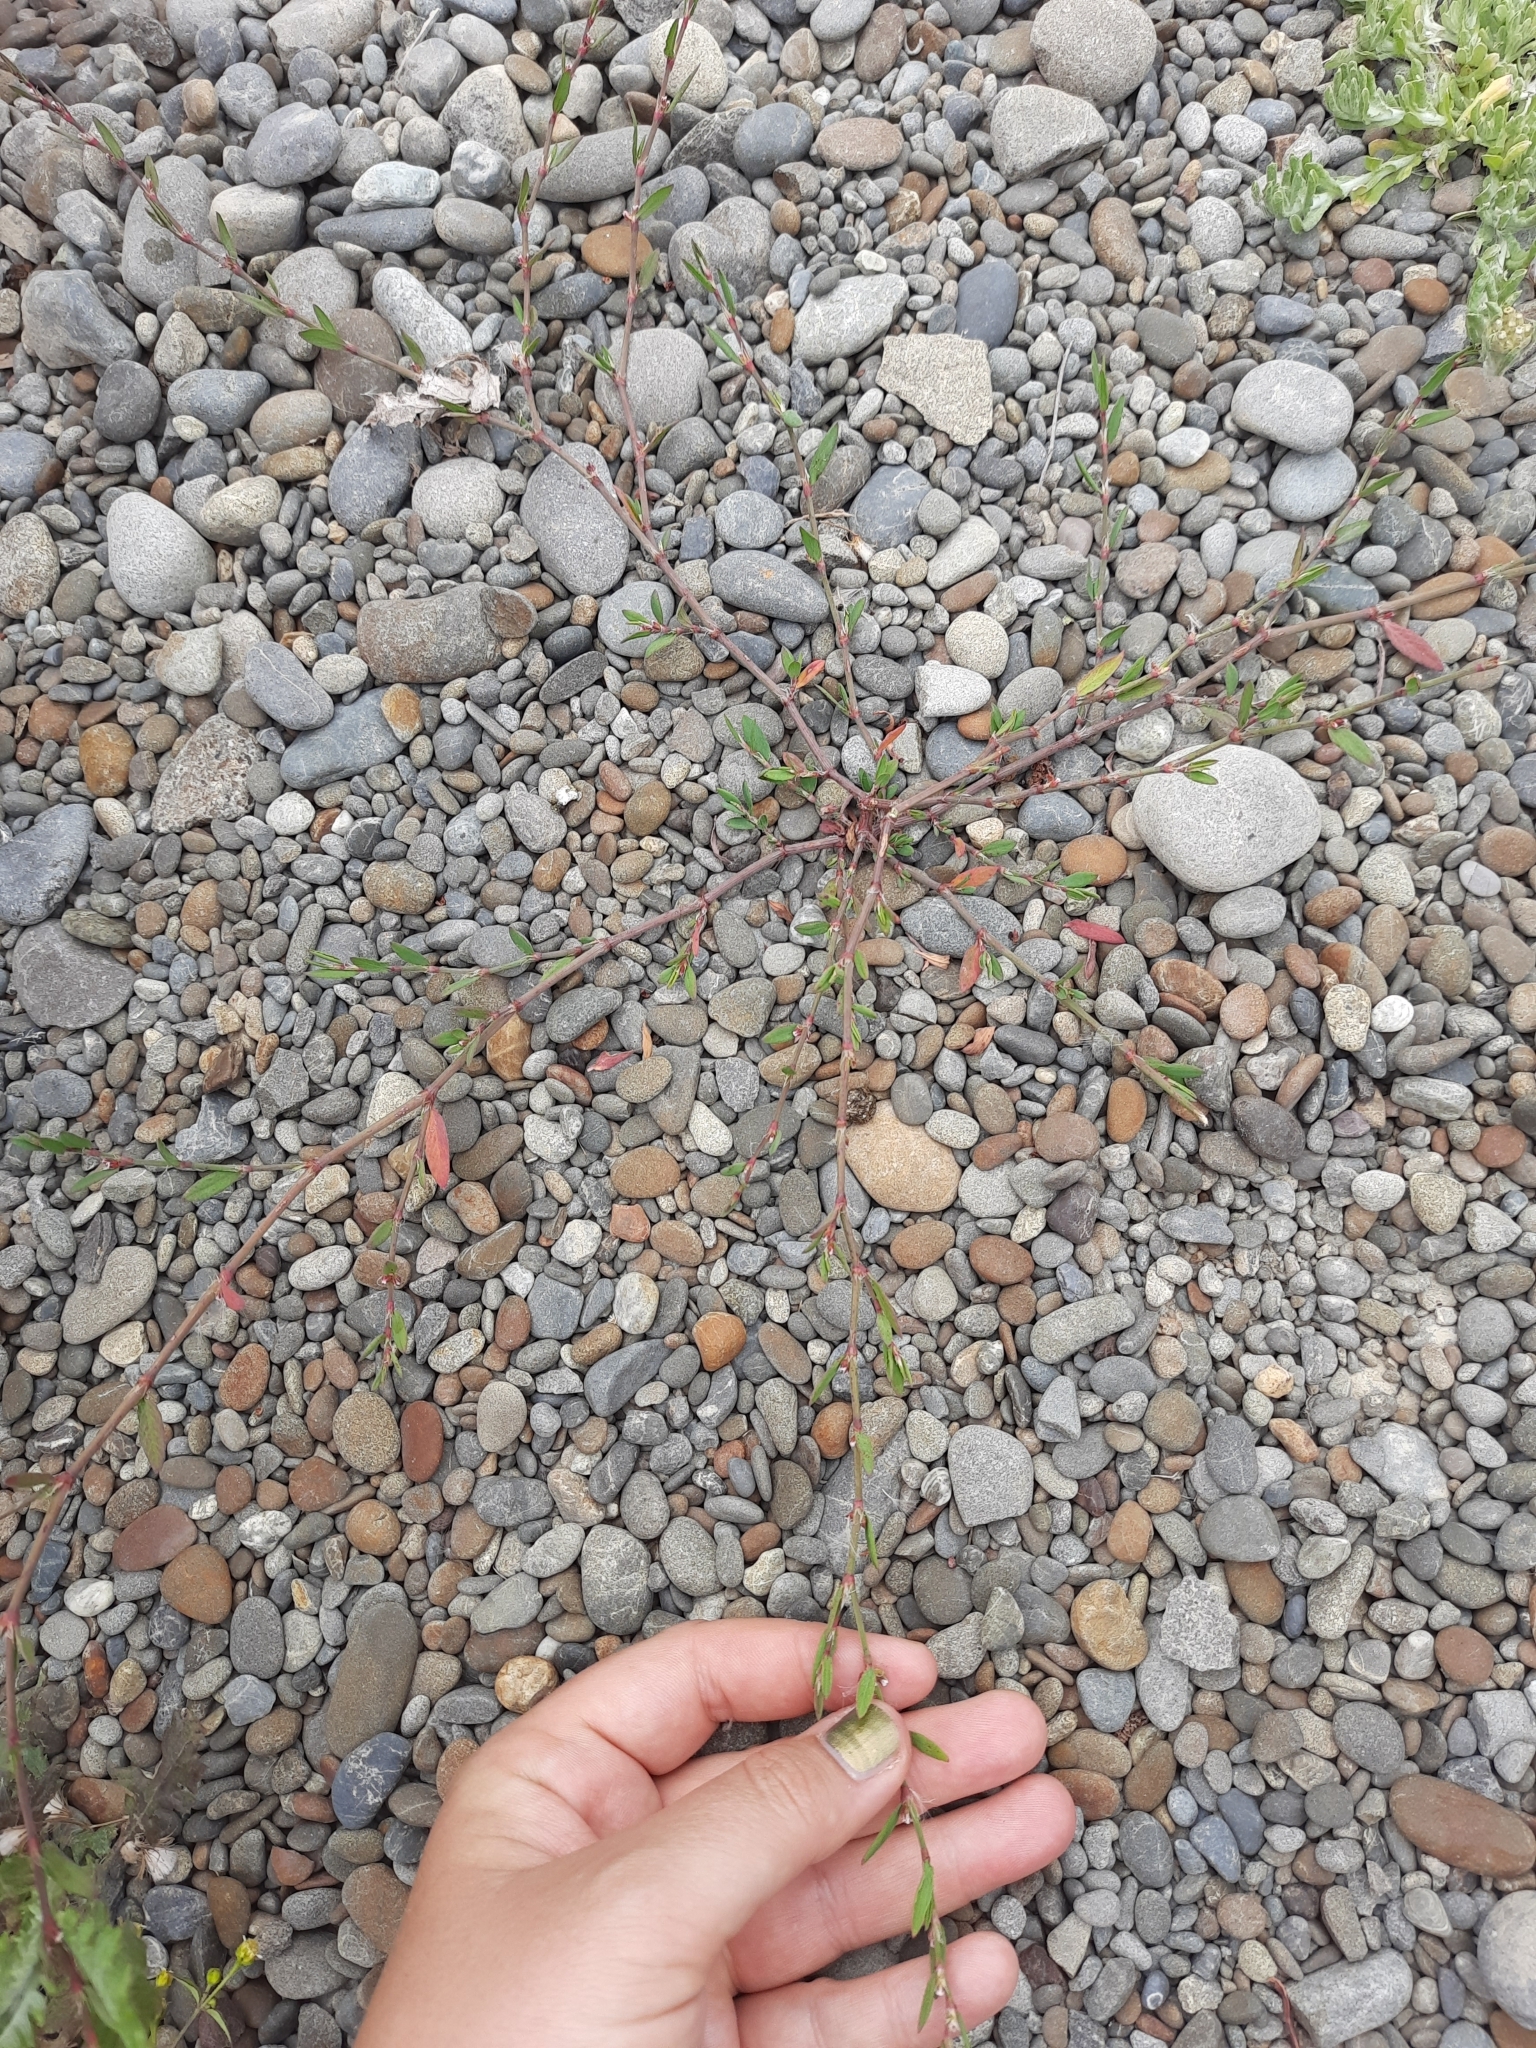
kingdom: Plantae
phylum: Tracheophyta
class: Magnoliopsida
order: Caryophyllales
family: Polygonaceae
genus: Polygonum
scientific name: Polygonum aviculare
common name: Prostrate knotweed
